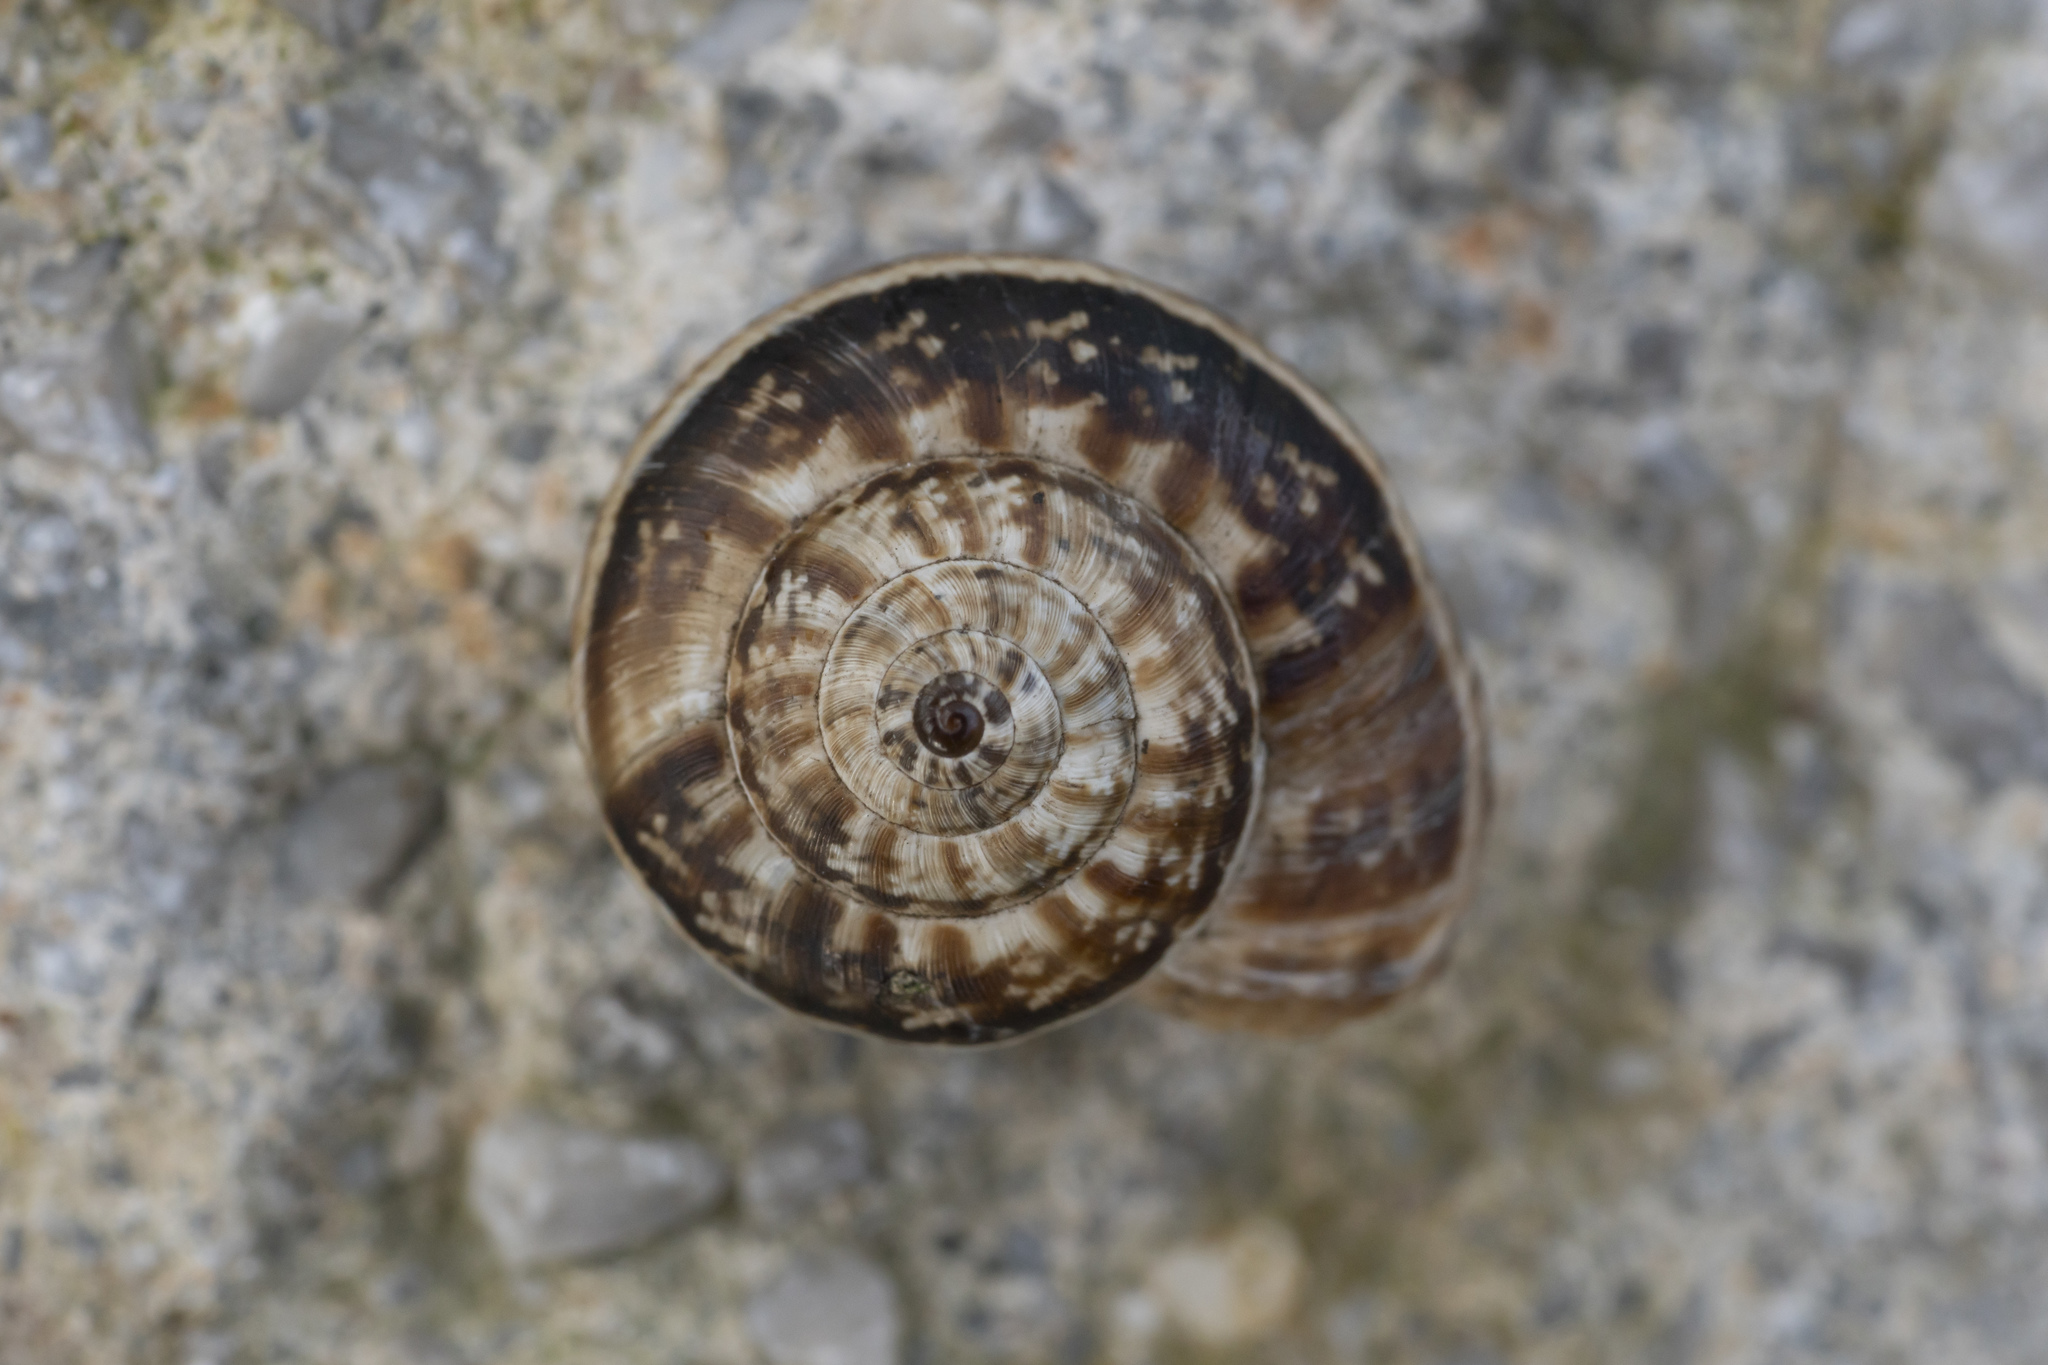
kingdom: Animalia
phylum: Mollusca
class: Gastropoda
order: Stylommatophora
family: Geomitridae
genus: Xeropicta
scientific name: Xeropicta krynickii
